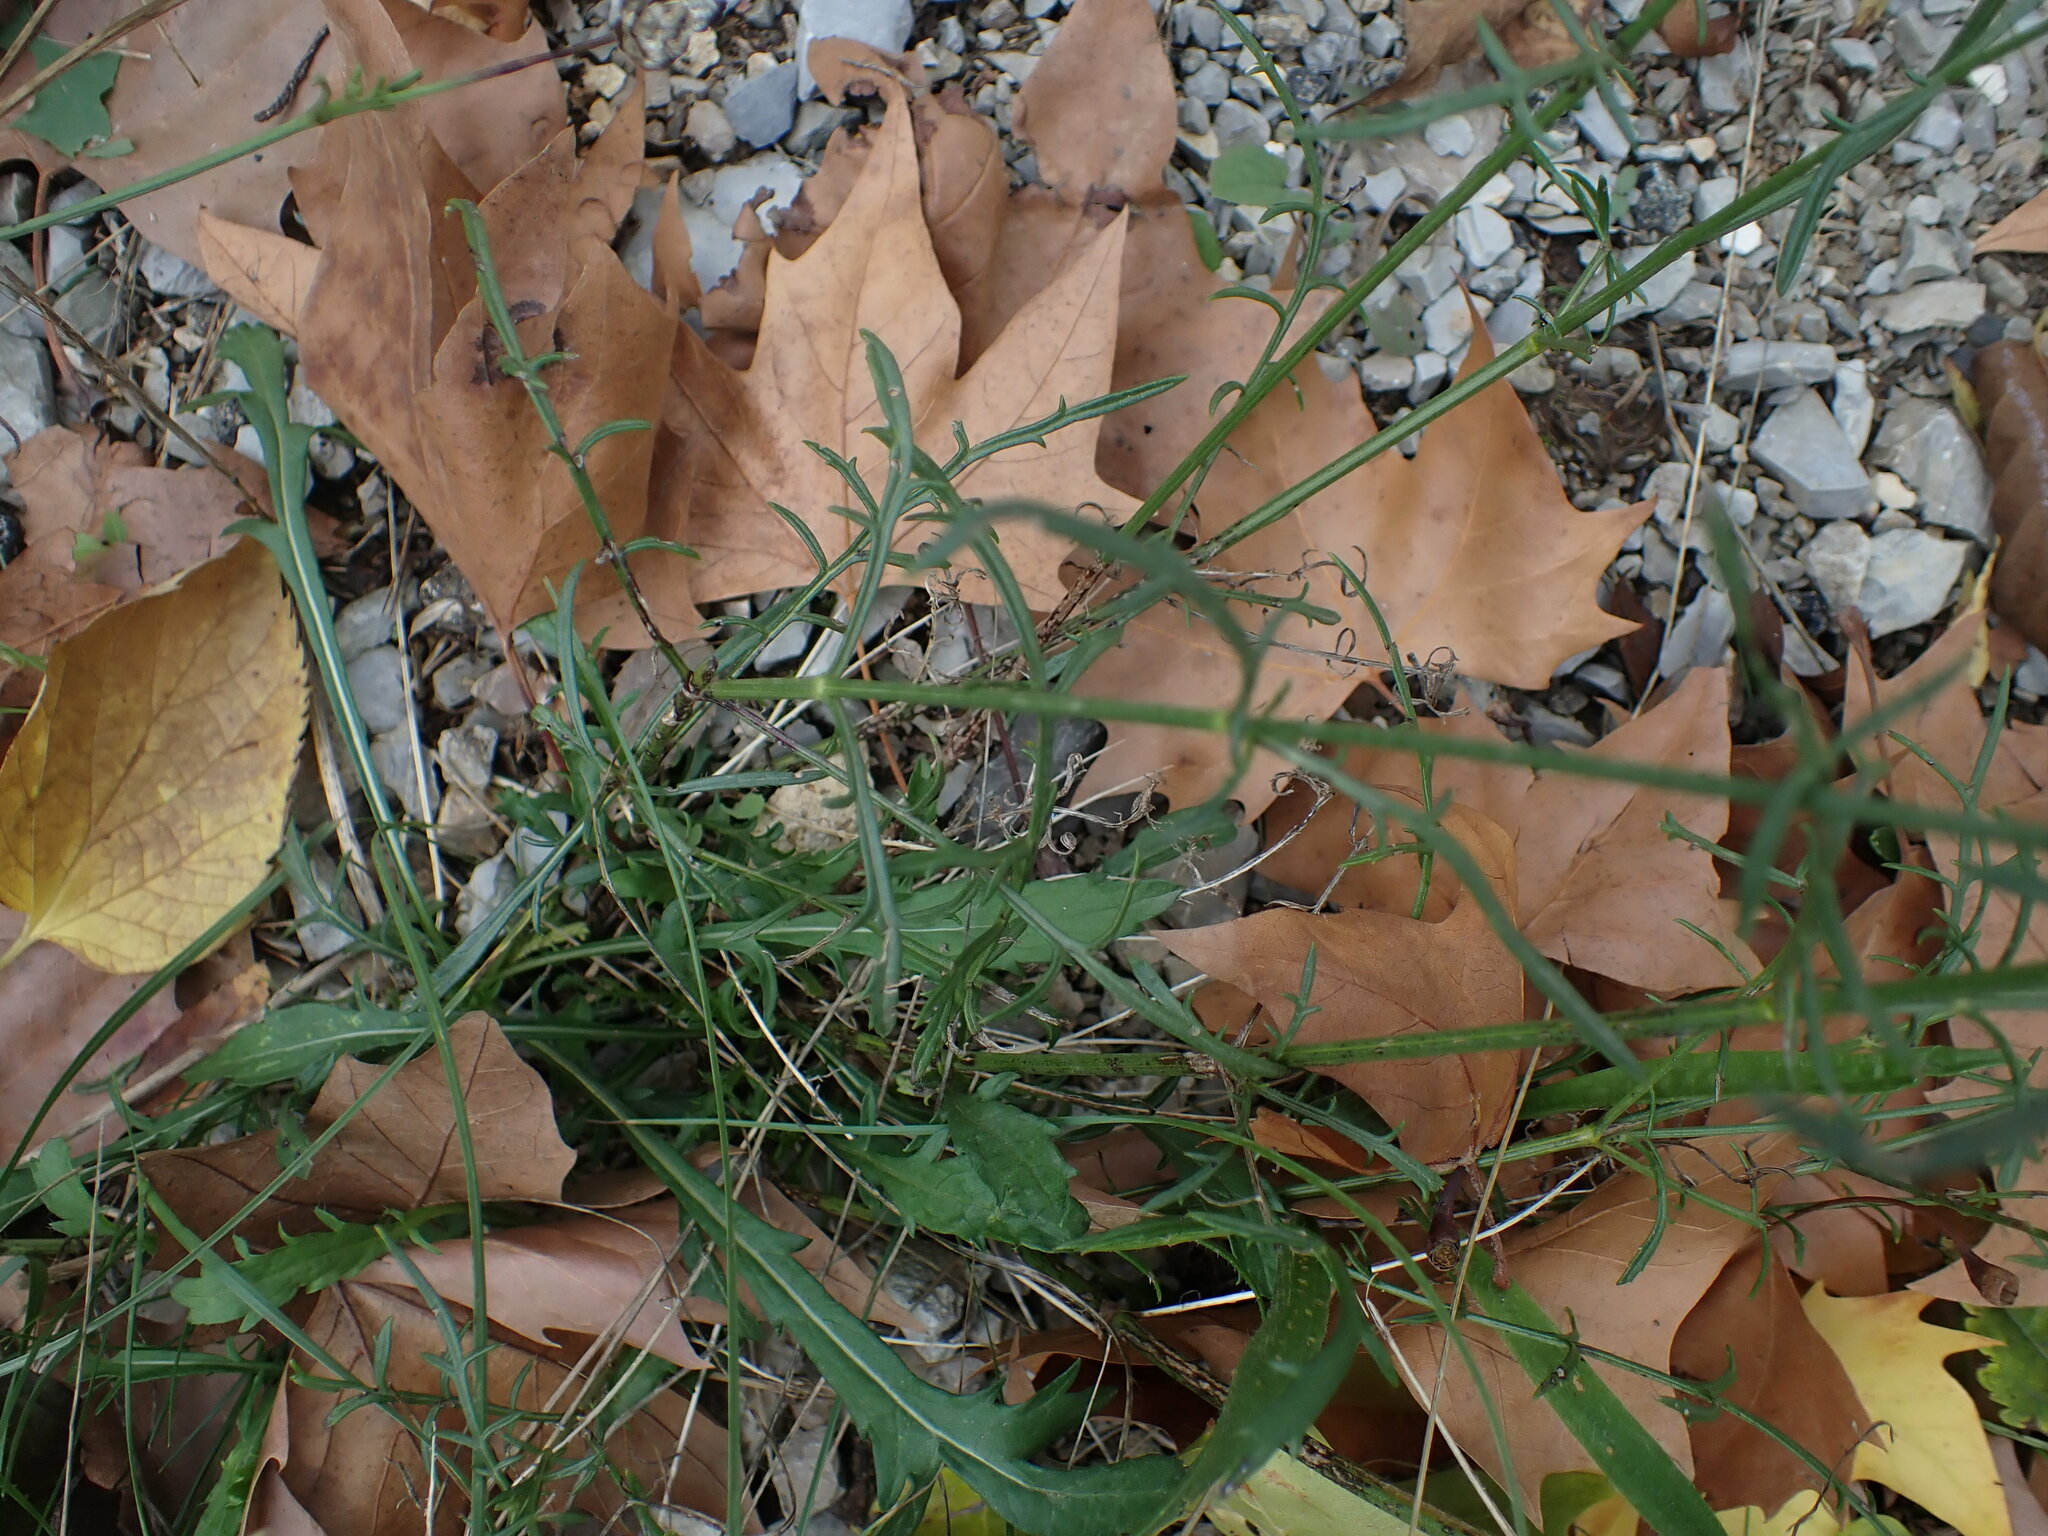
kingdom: Plantae
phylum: Tracheophyta
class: Magnoliopsida
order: Dipsacales
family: Caprifoliaceae
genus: Cephalaria
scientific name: Cephalaria leucantha
